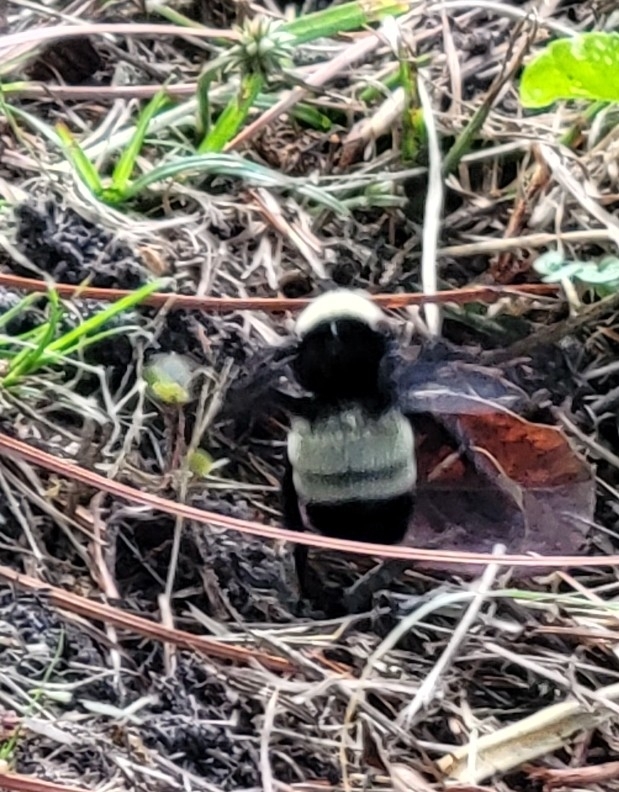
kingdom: Animalia
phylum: Arthropoda
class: Insecta
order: Hymenoptera
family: Apidae
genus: Bombus
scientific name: Bombus pensylvanicus
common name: Bumble bee
